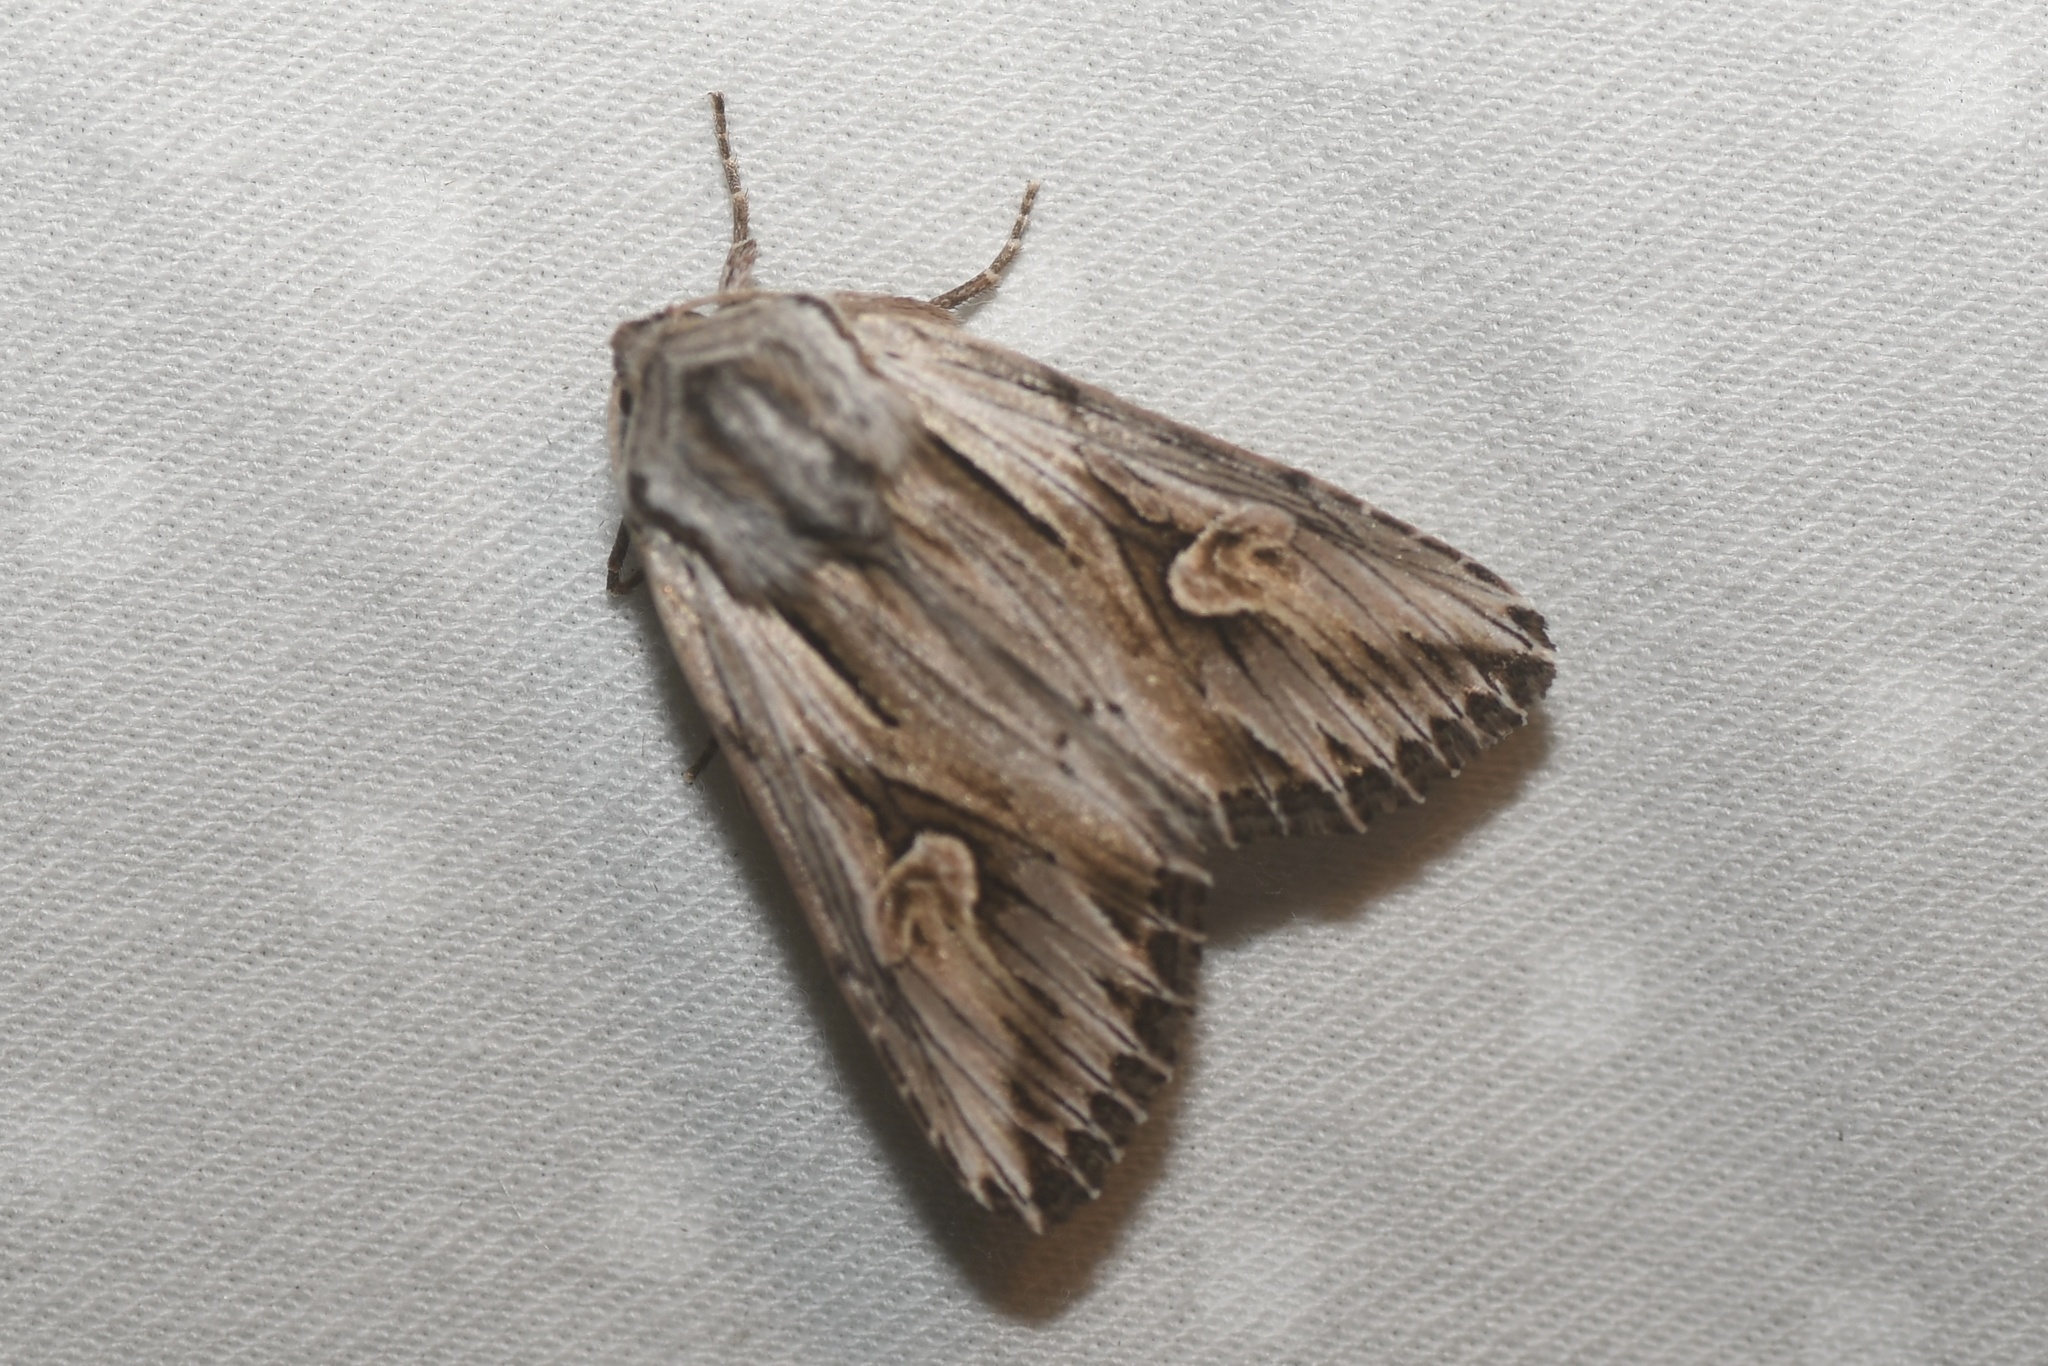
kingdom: Animalia
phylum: Arthropoda
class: Insecta
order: Lepidoptera
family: Noctuidae
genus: Nedra
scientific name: Nedra ramosula
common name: Gray half-spot
